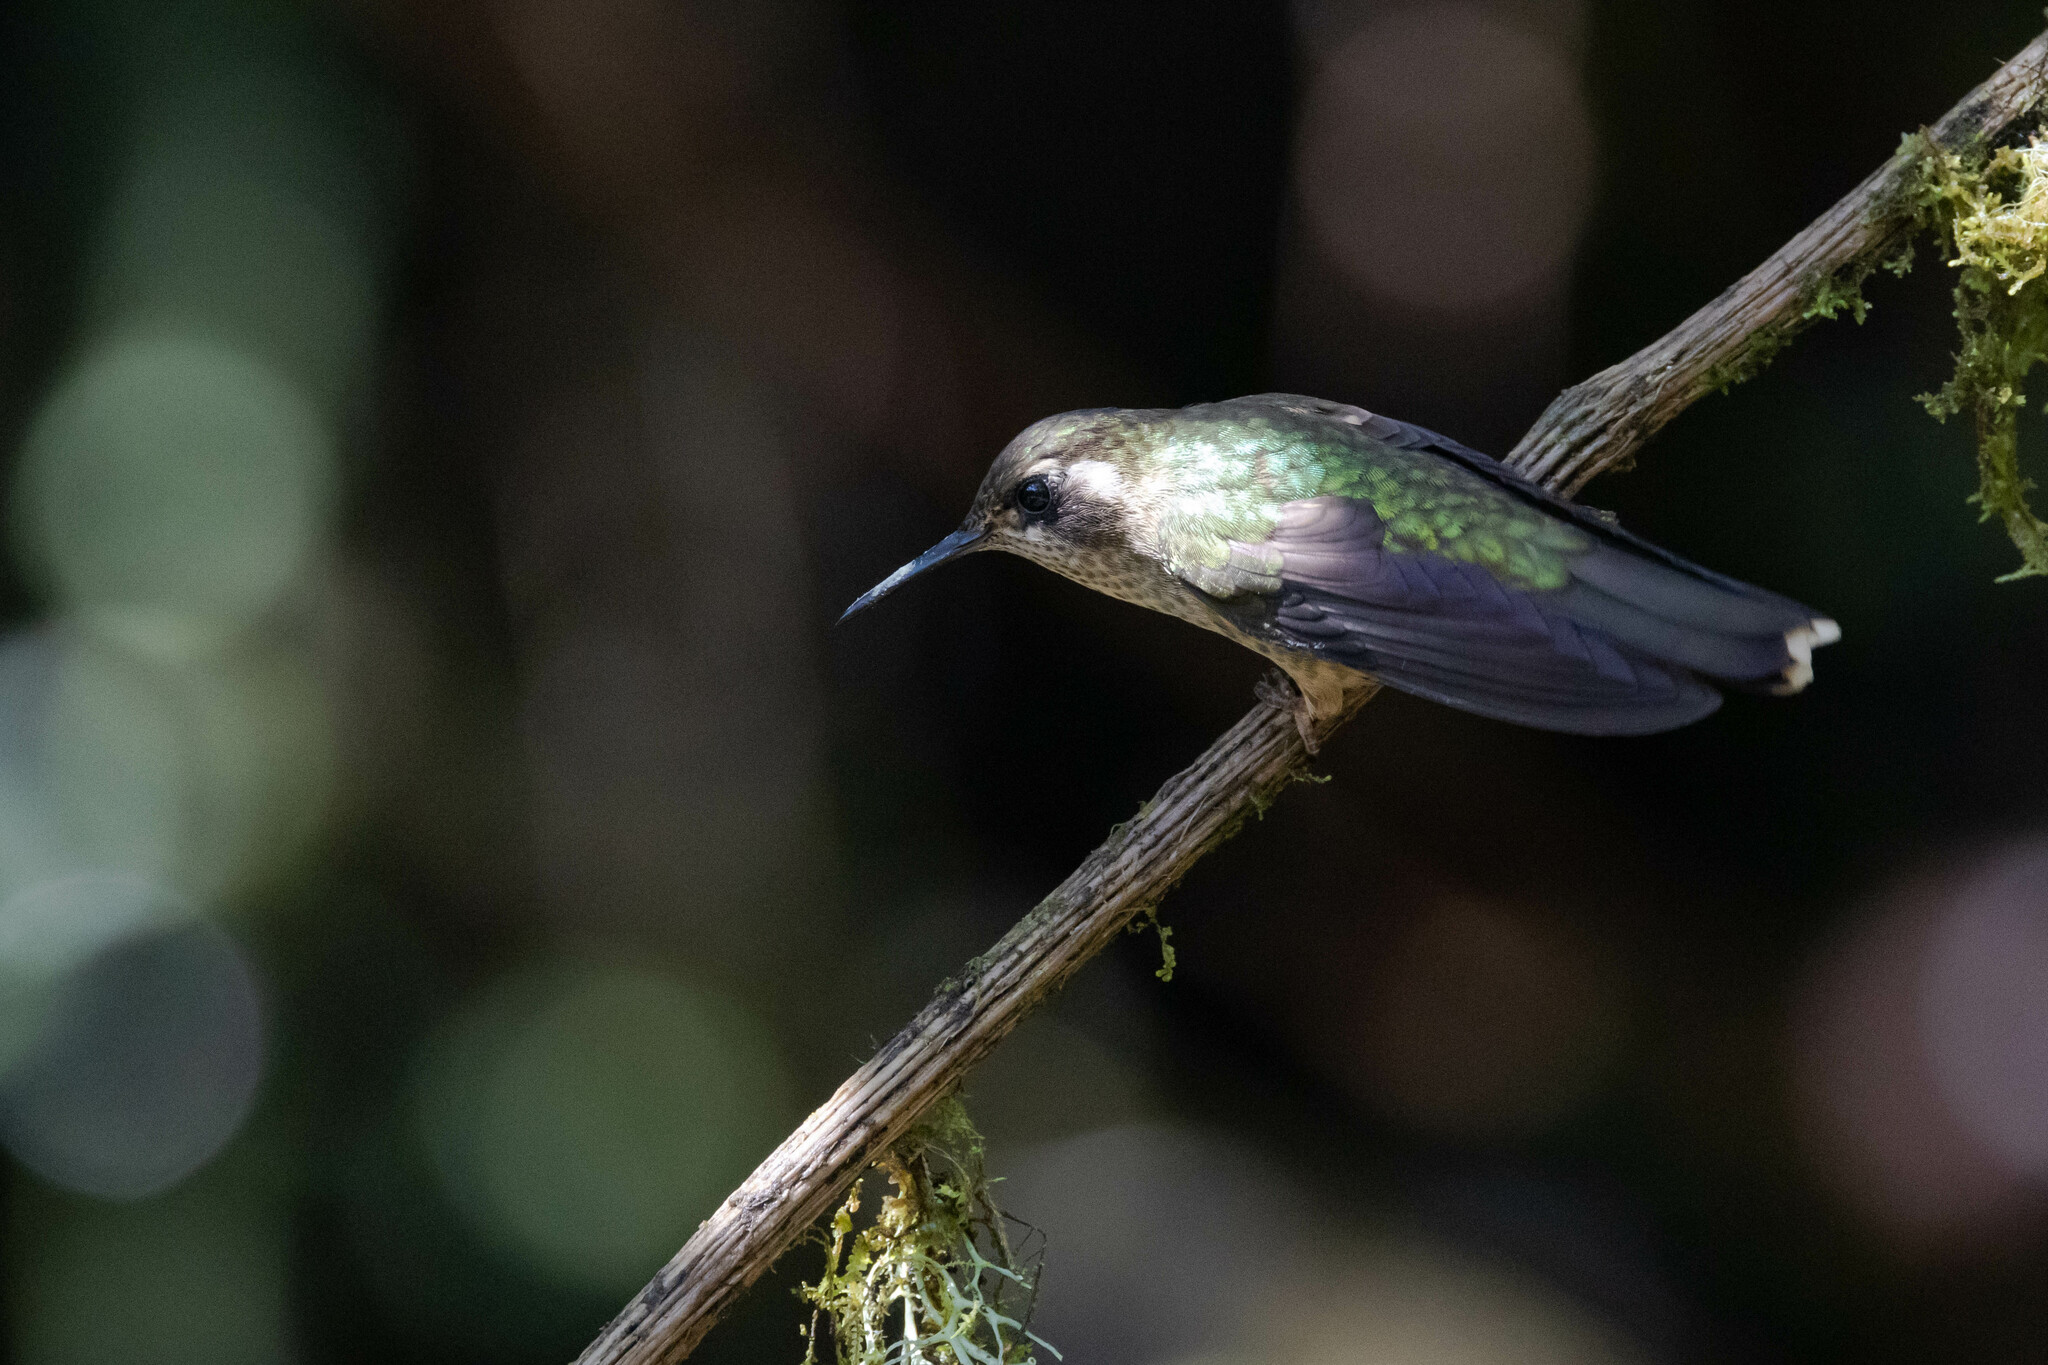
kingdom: Animalia
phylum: Chordata
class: Aves
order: Apodiformes
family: Trochilidae
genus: Adelomyia
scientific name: Adelomyia melanogenys
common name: Speckled hummingbird
